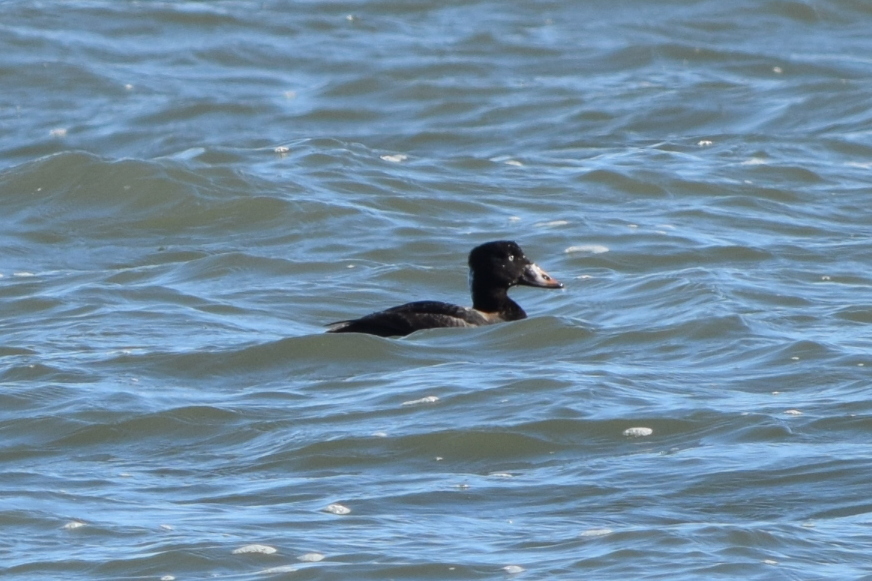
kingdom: Animalia
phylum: Chordata
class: Aves
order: Anseriformes
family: Anatidae
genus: Melanitta
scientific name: Melanitta perspicillata
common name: Surf scoter
